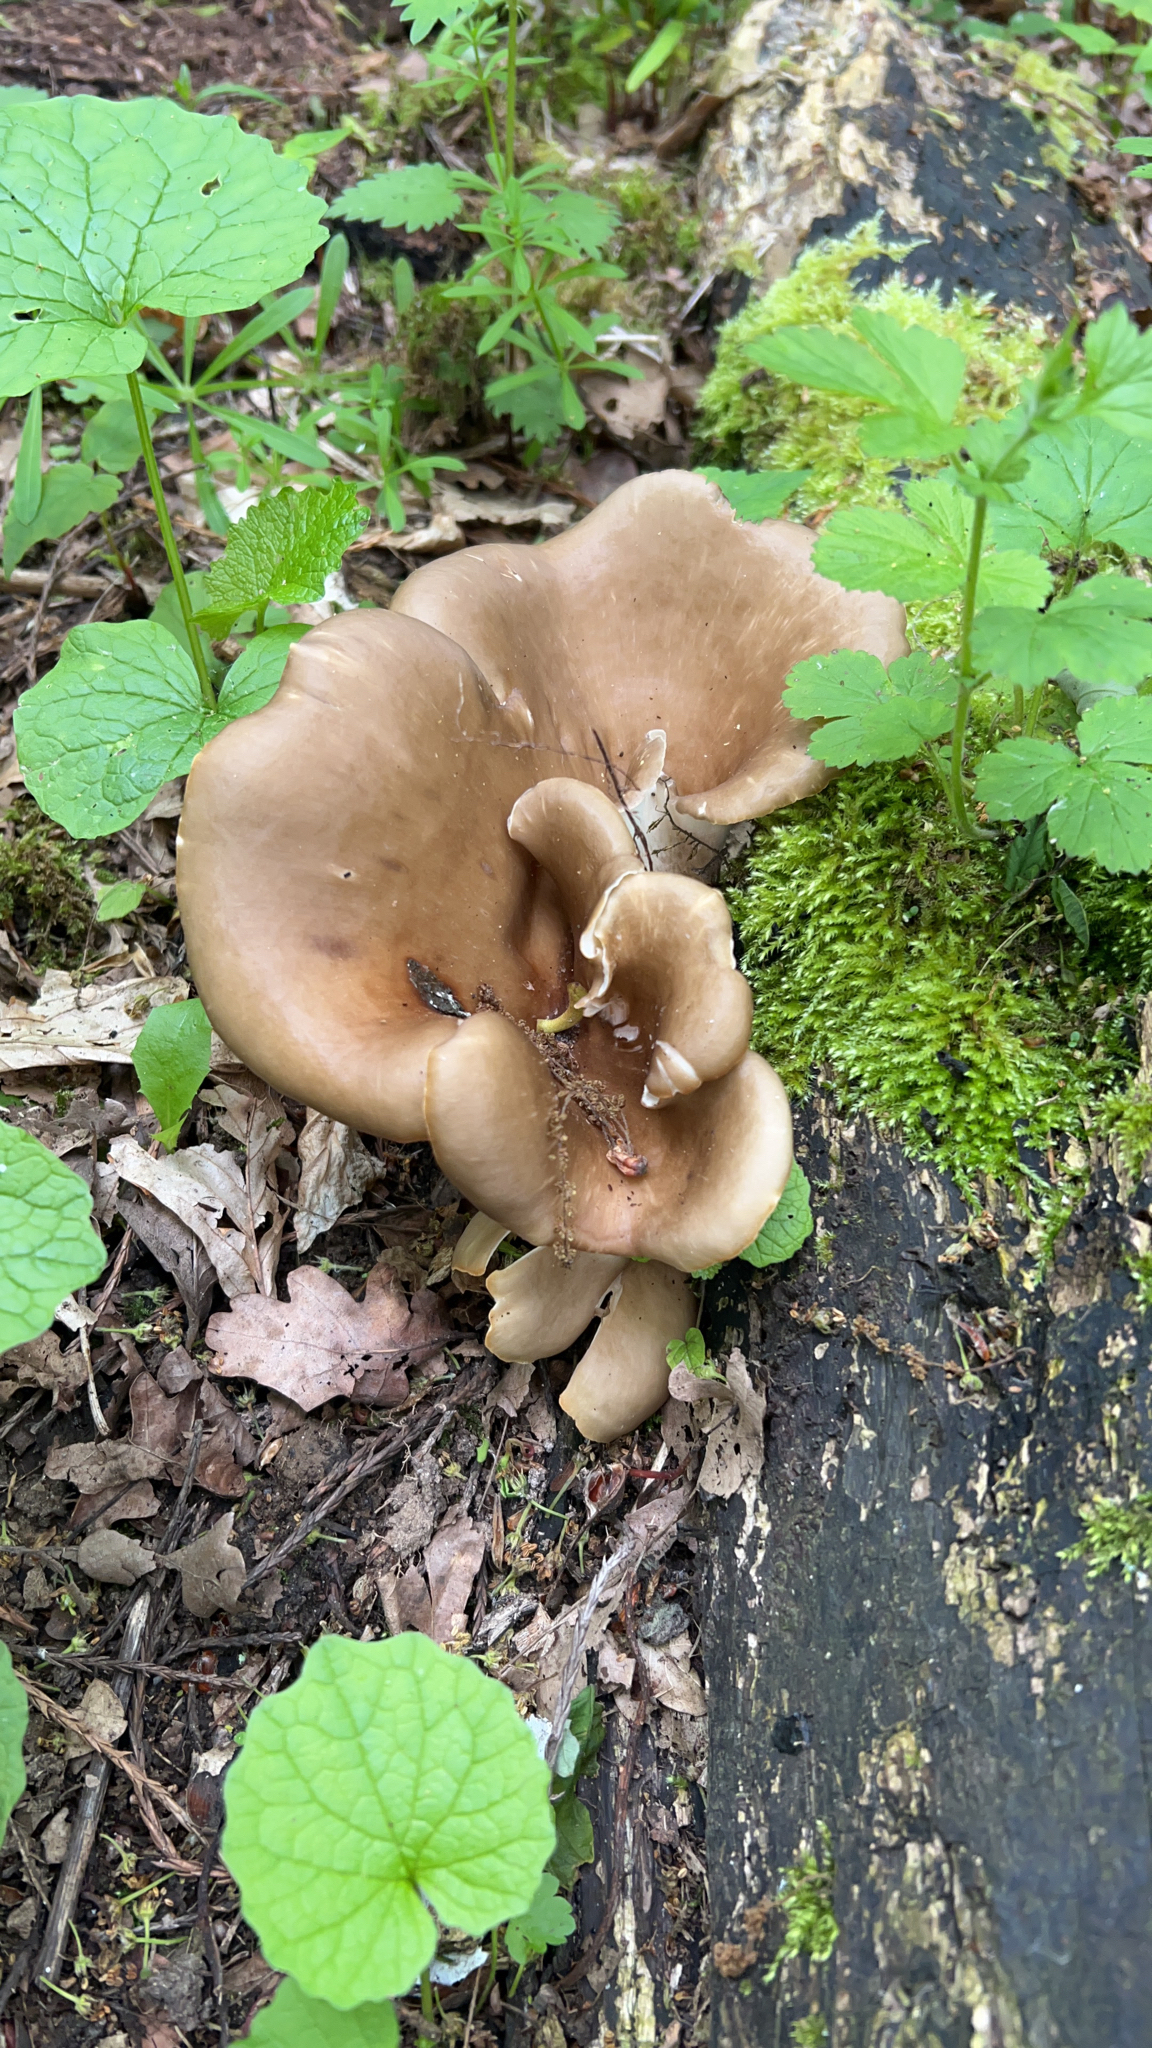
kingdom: Fungi
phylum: Basidiomycota
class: Agaricomycetes
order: Agaricales
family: Pleurotaceae
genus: Hohenbuehelia
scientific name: Hohenbuehelia petaloides
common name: Shoehorn oyster
